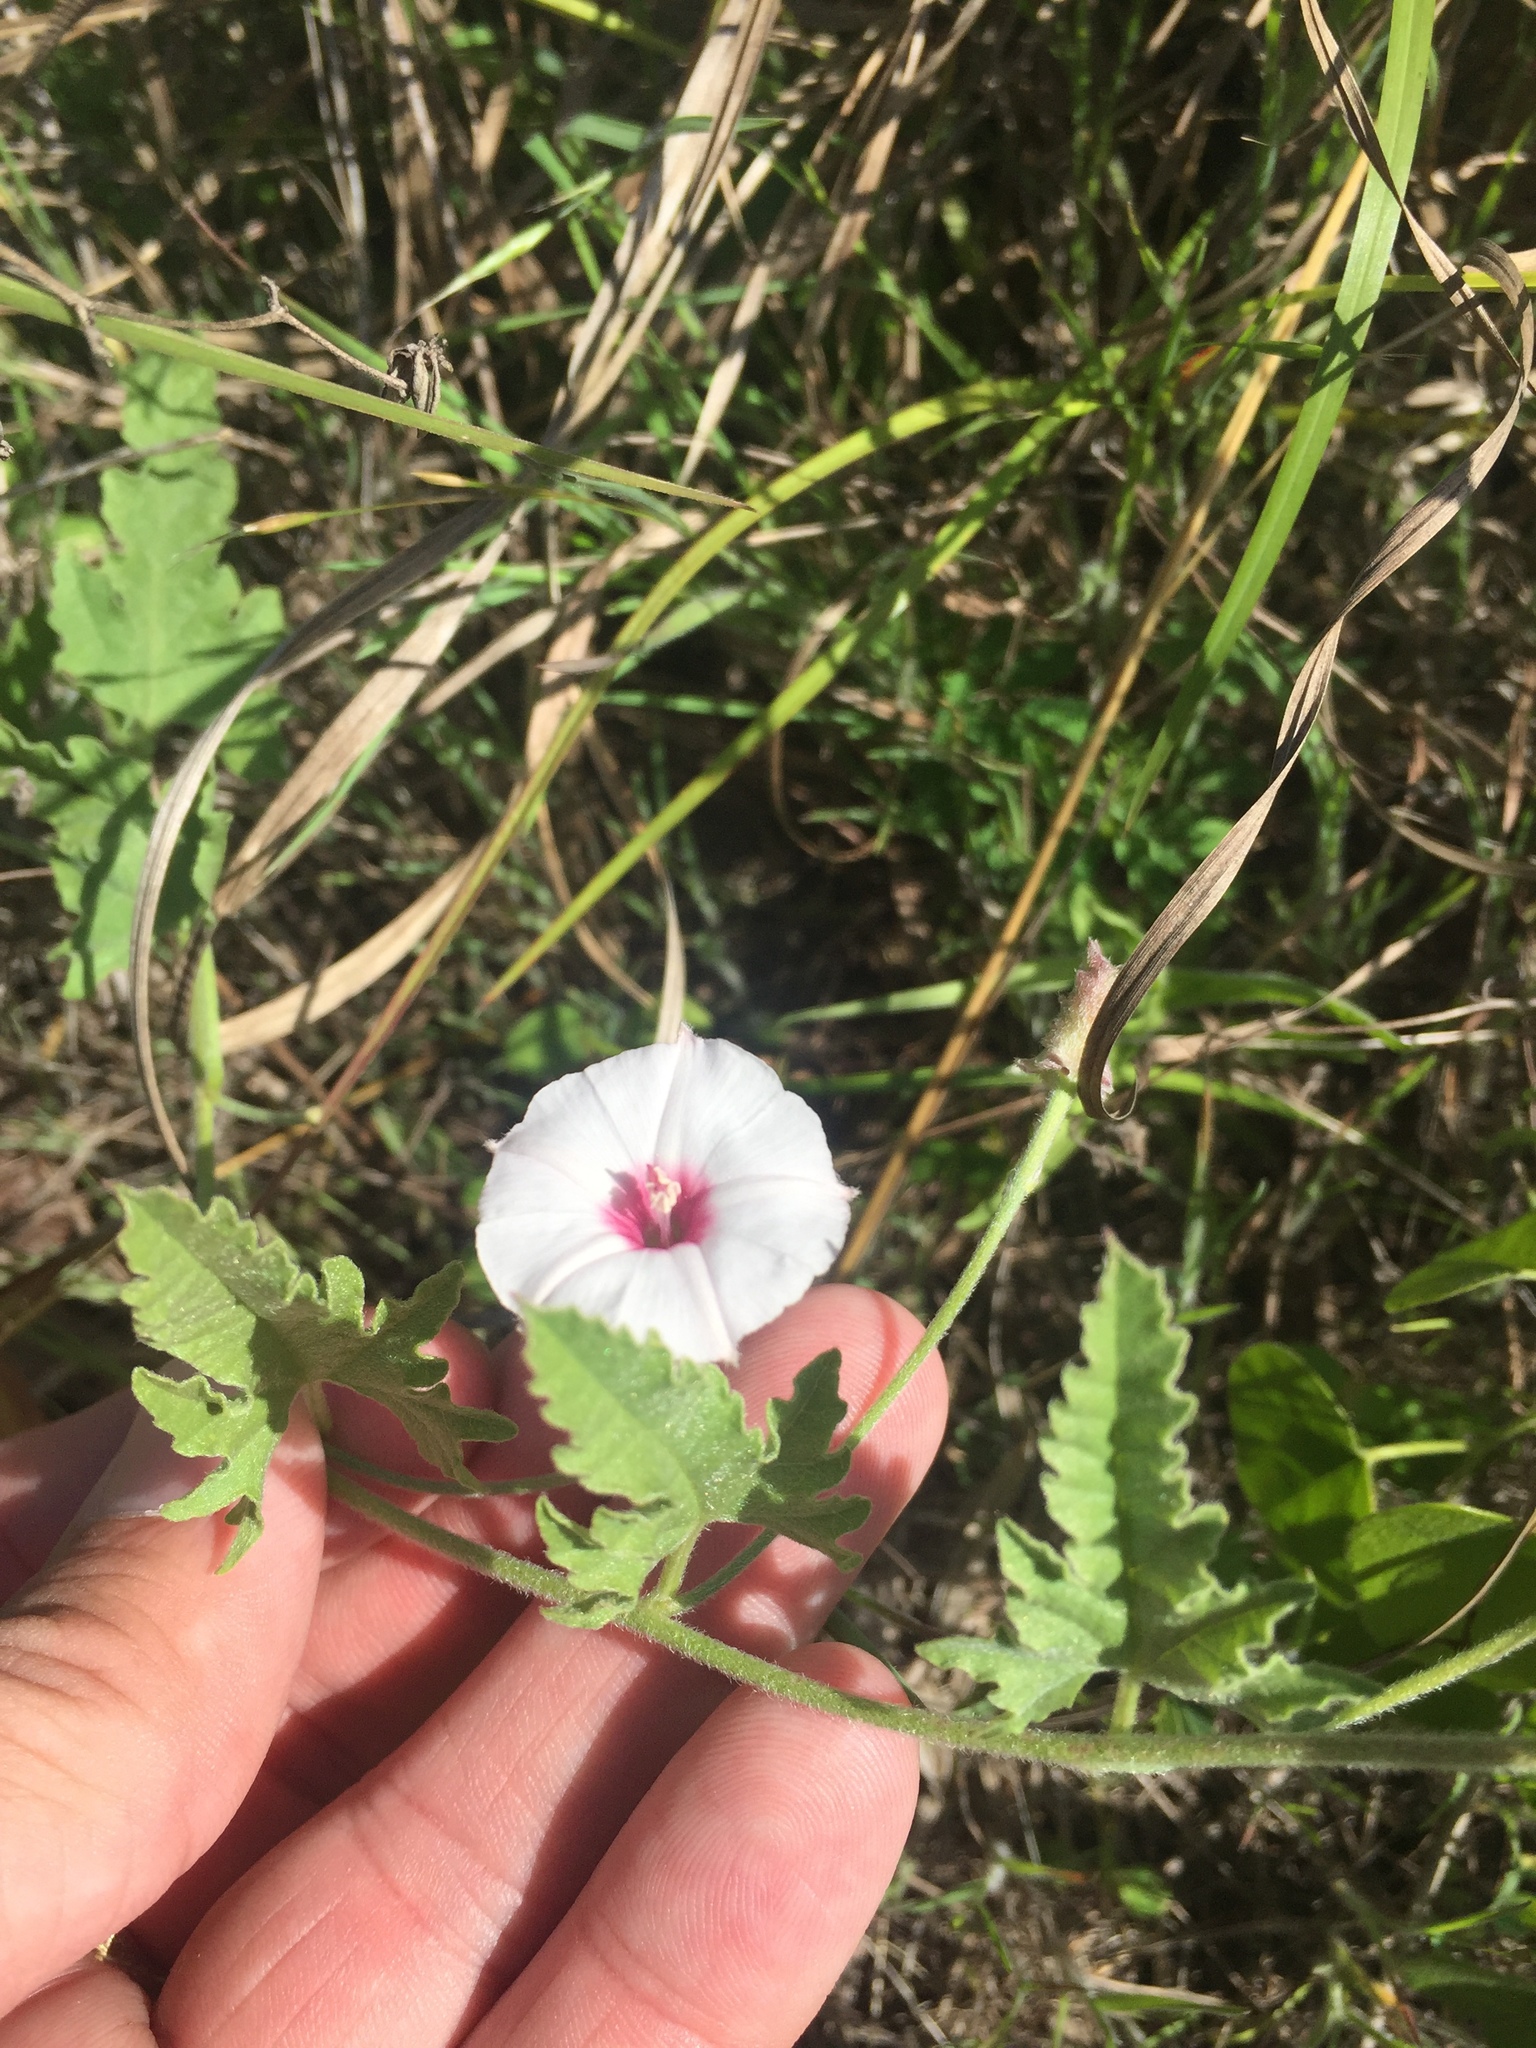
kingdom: Plantae
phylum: Tracheophyta
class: Magnoliopsida
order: Solanales
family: Convolvulaceae
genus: Convolvulus
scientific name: Convolvulus equitans
